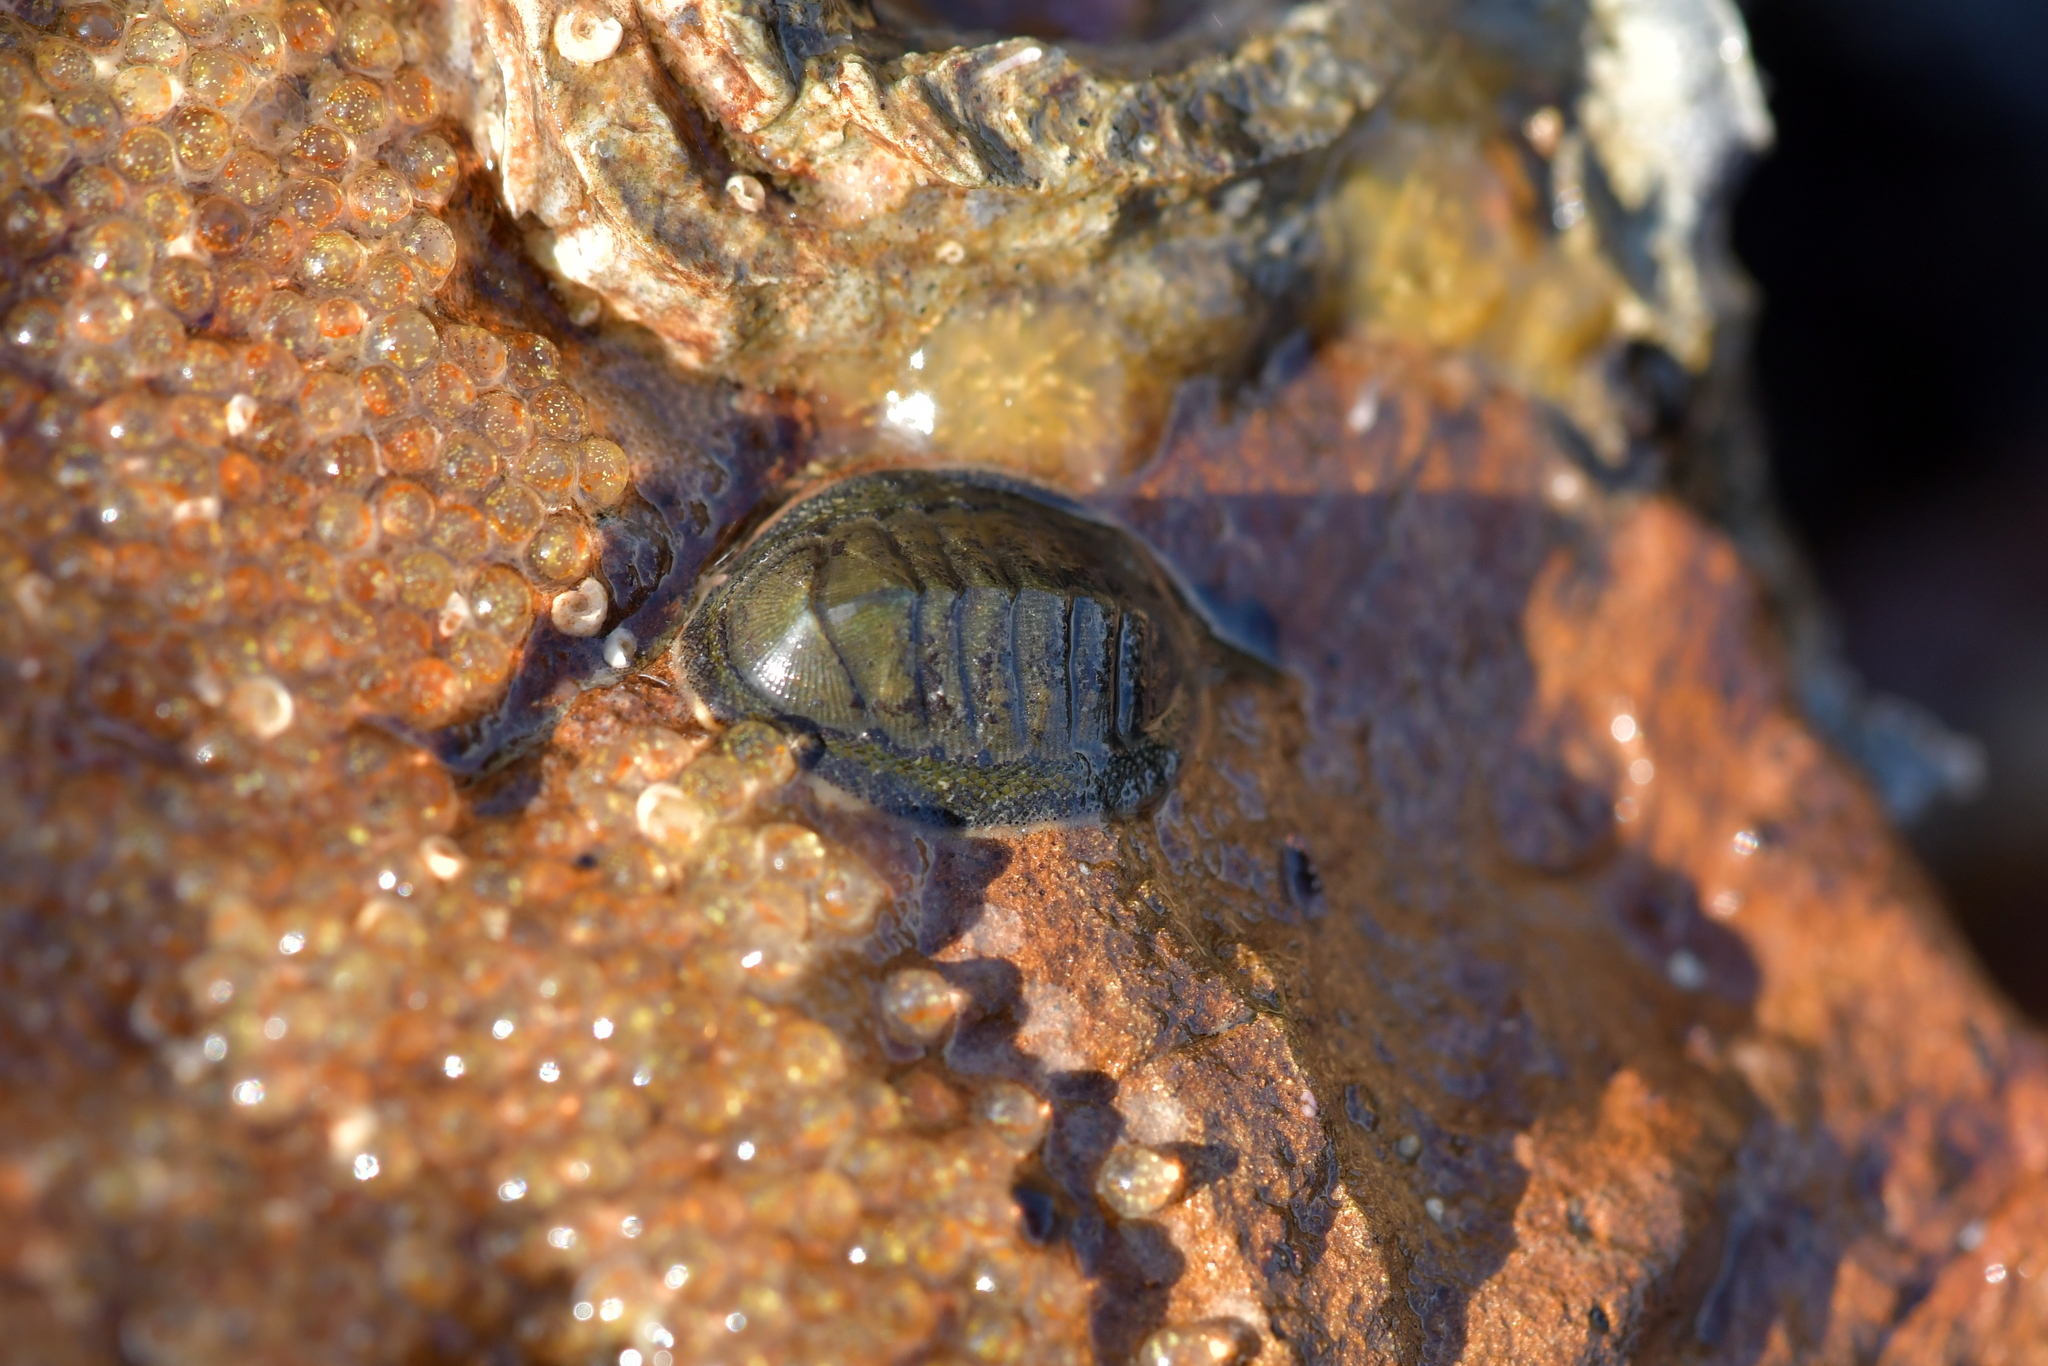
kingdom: Animalia
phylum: Mollusca
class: Polyplacophora
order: Chitonida
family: Chitonidae
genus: Chiton
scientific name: Chiton glaucus
